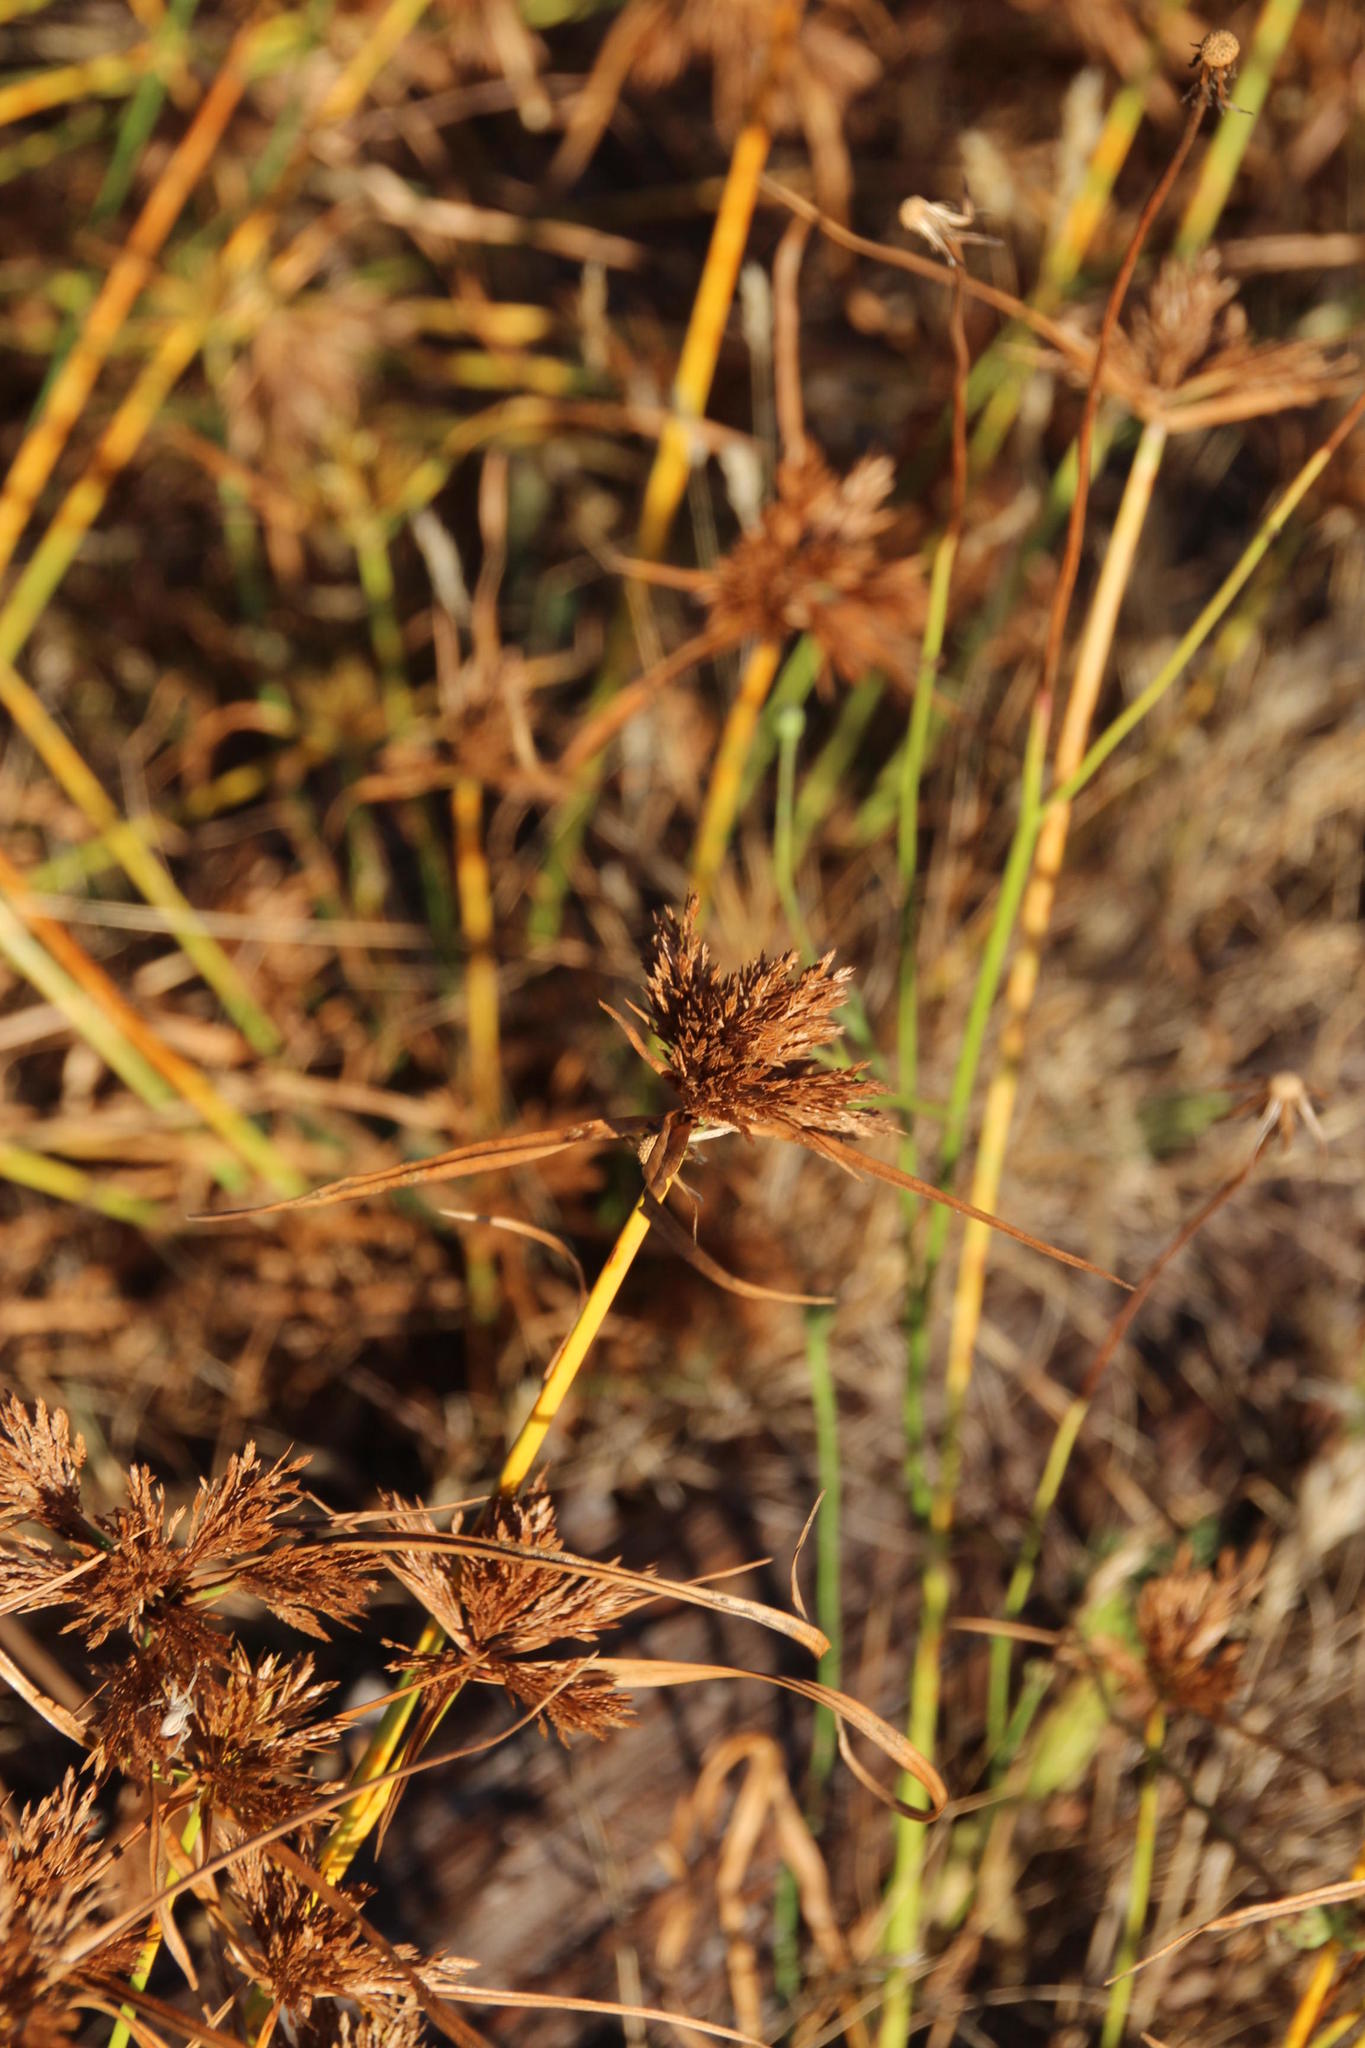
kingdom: Plantae
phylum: Tracheophyta
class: Liliopsida
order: Poales
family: Cyperaceae
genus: Cyperus
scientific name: Cyperus polystachyos
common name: Bunchy flat sedge
